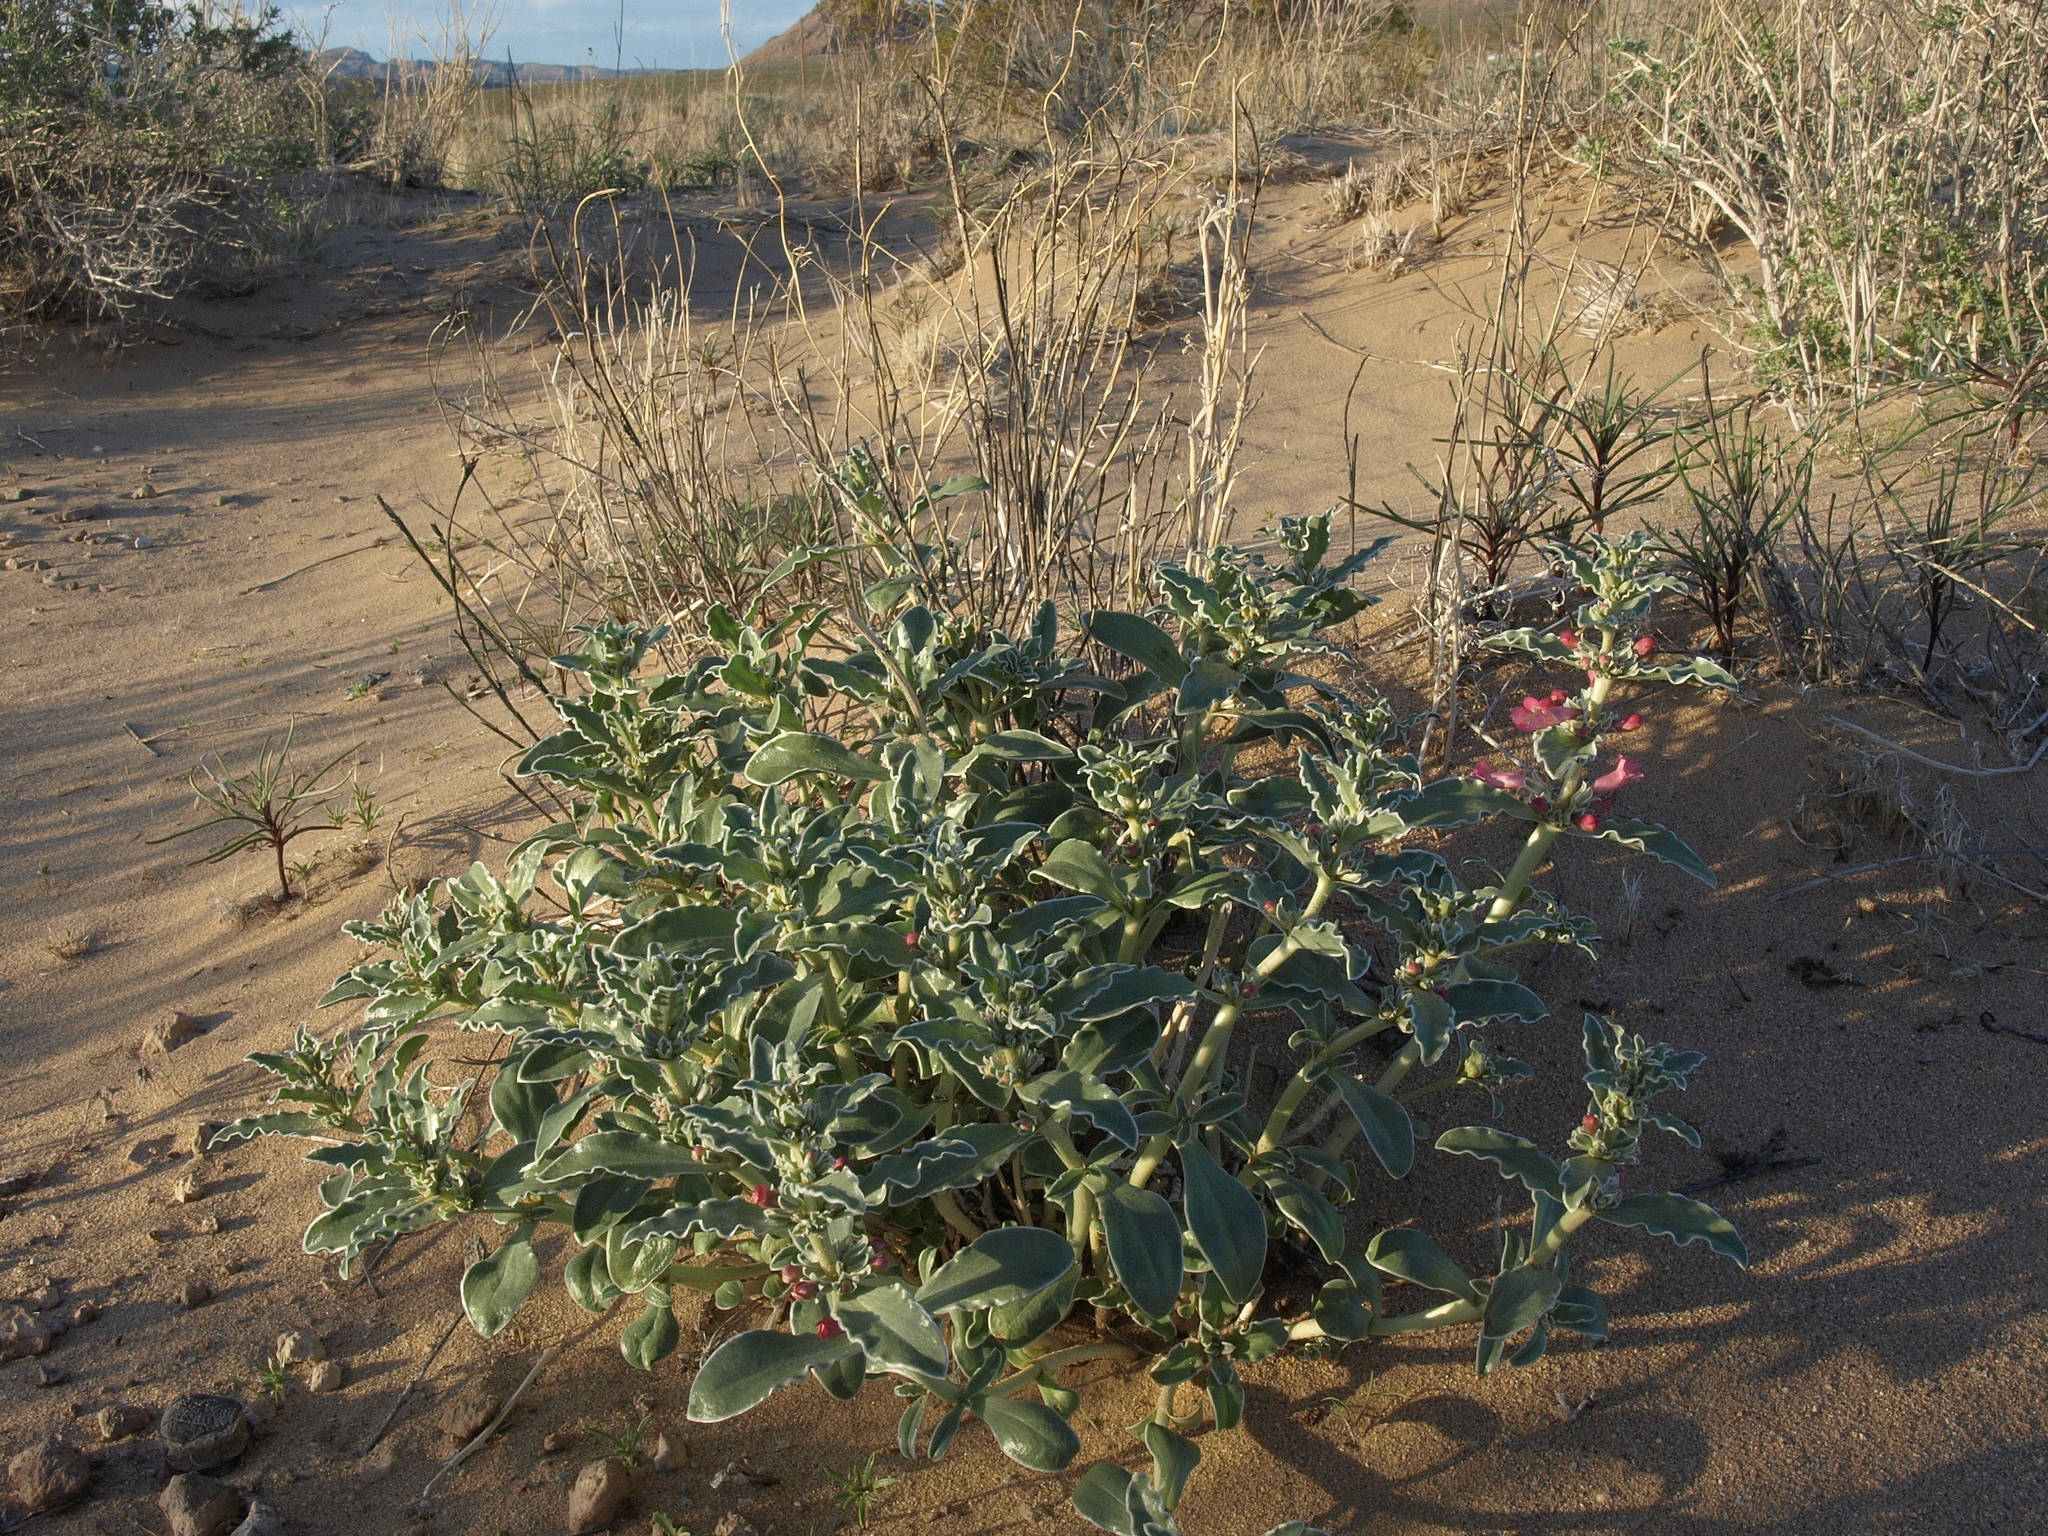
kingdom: Plantae
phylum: Tracheophyta
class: Magnoliopsida
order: Lamiales
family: Plantaginaceae
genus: Penstemon
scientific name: Penstemon albomarginatus
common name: White-margin beardtongue
